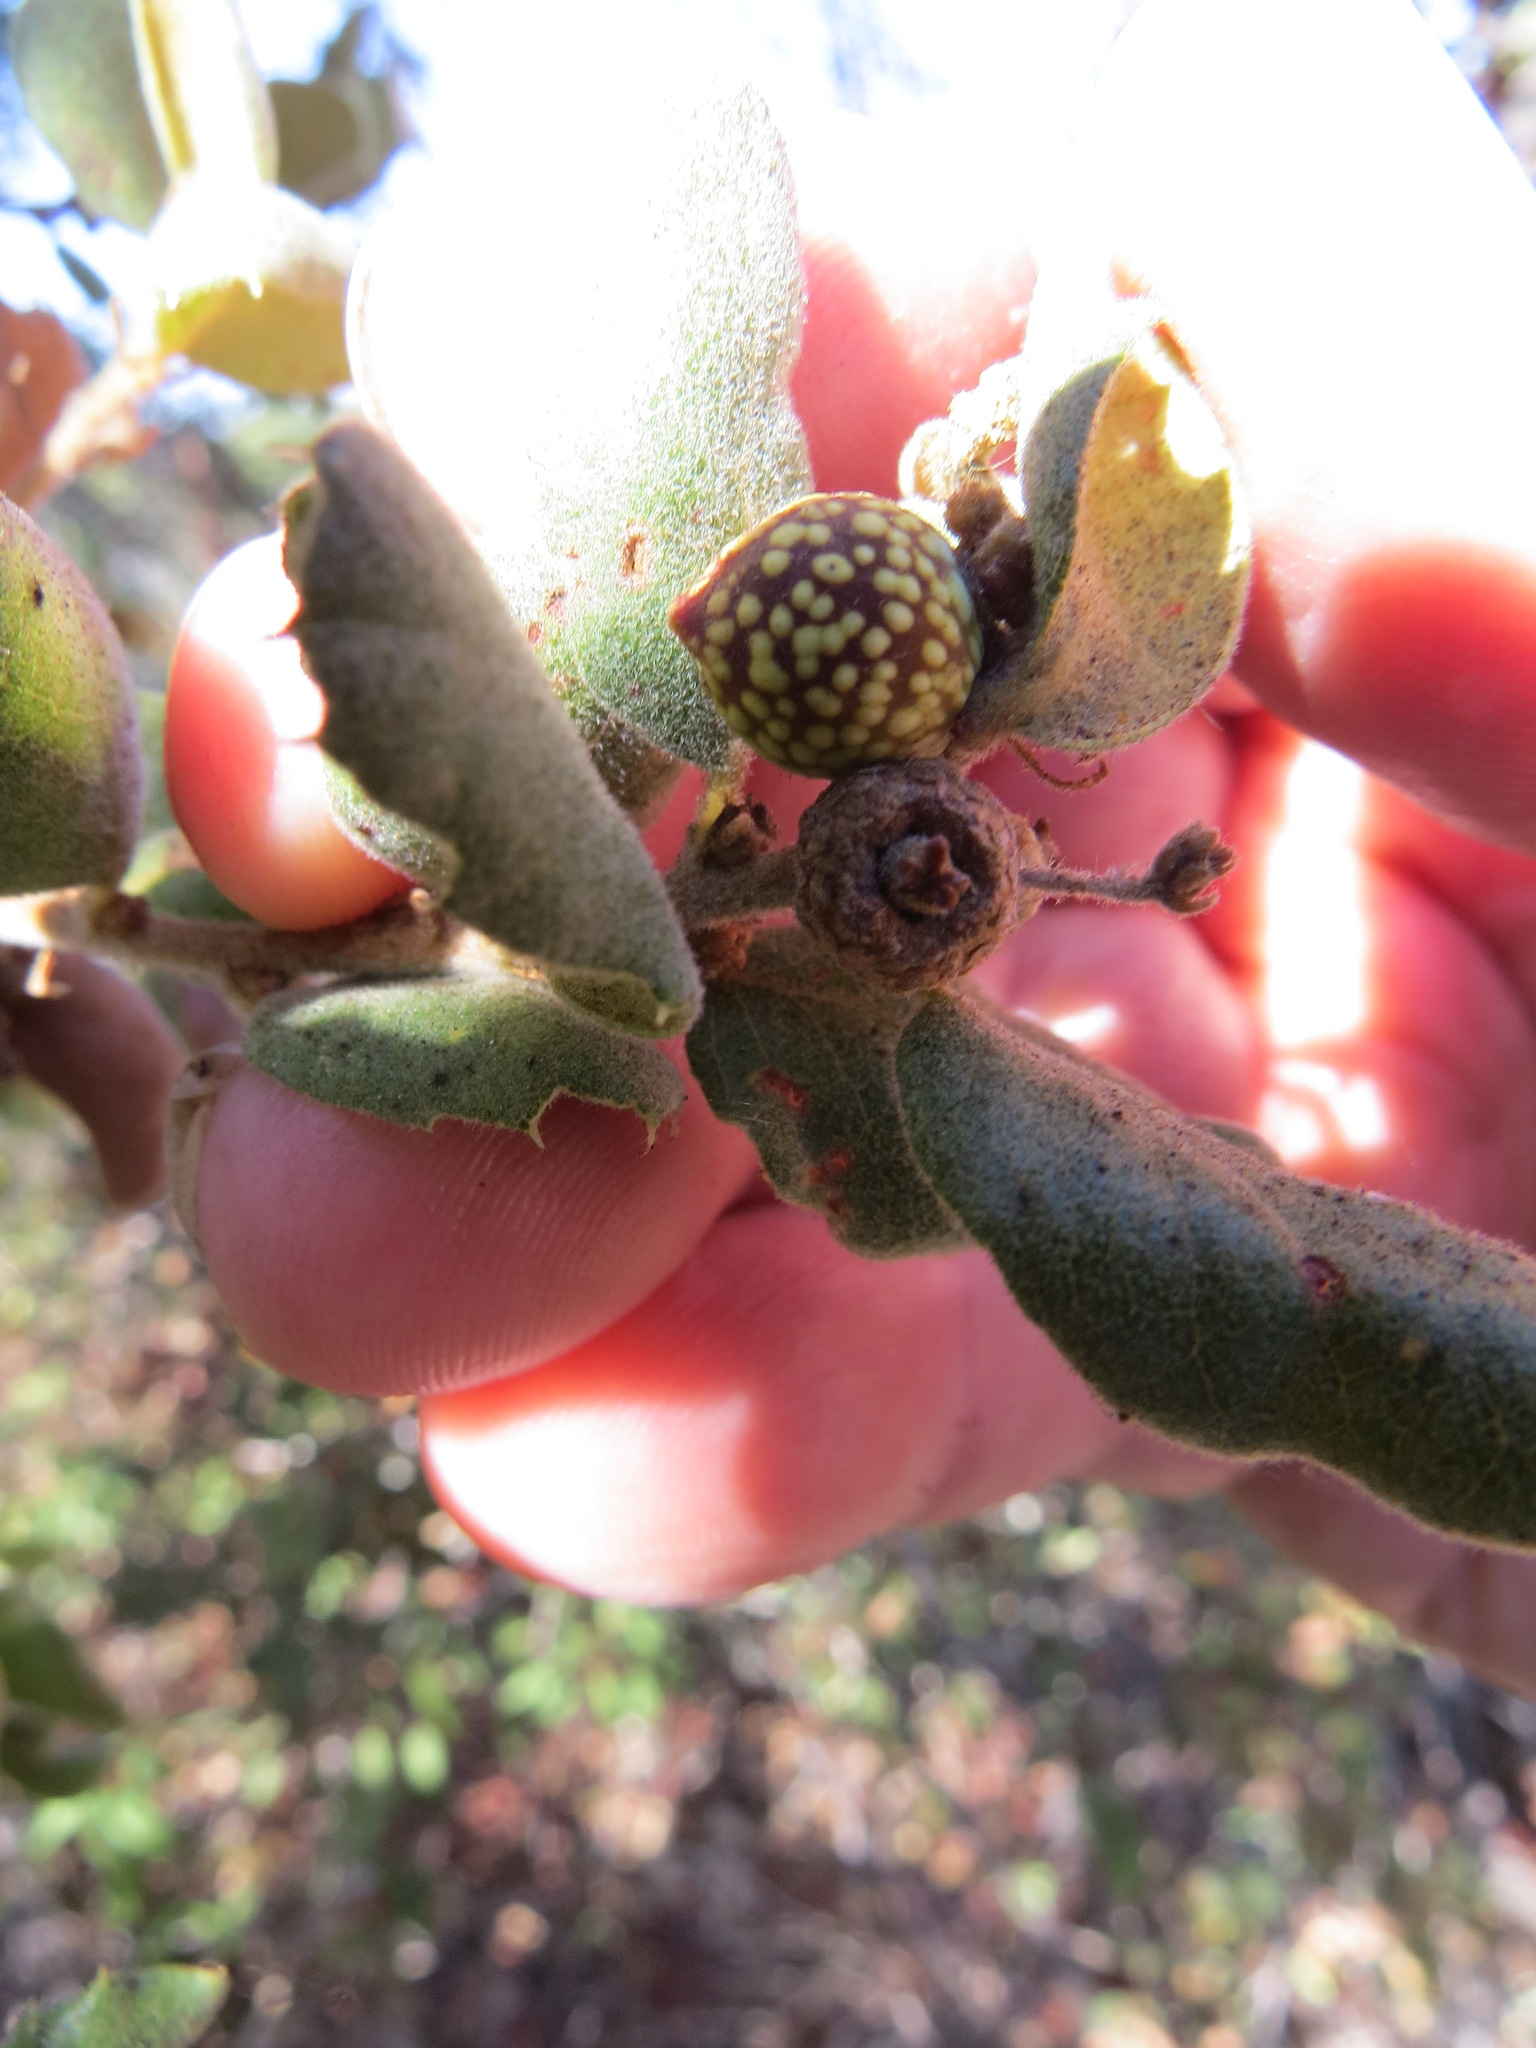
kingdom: Animalia
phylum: Arthropoda
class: Insecta
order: Hymenoptera
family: Cynipidae
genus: Burnettweldia
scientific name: Burnettweldia
